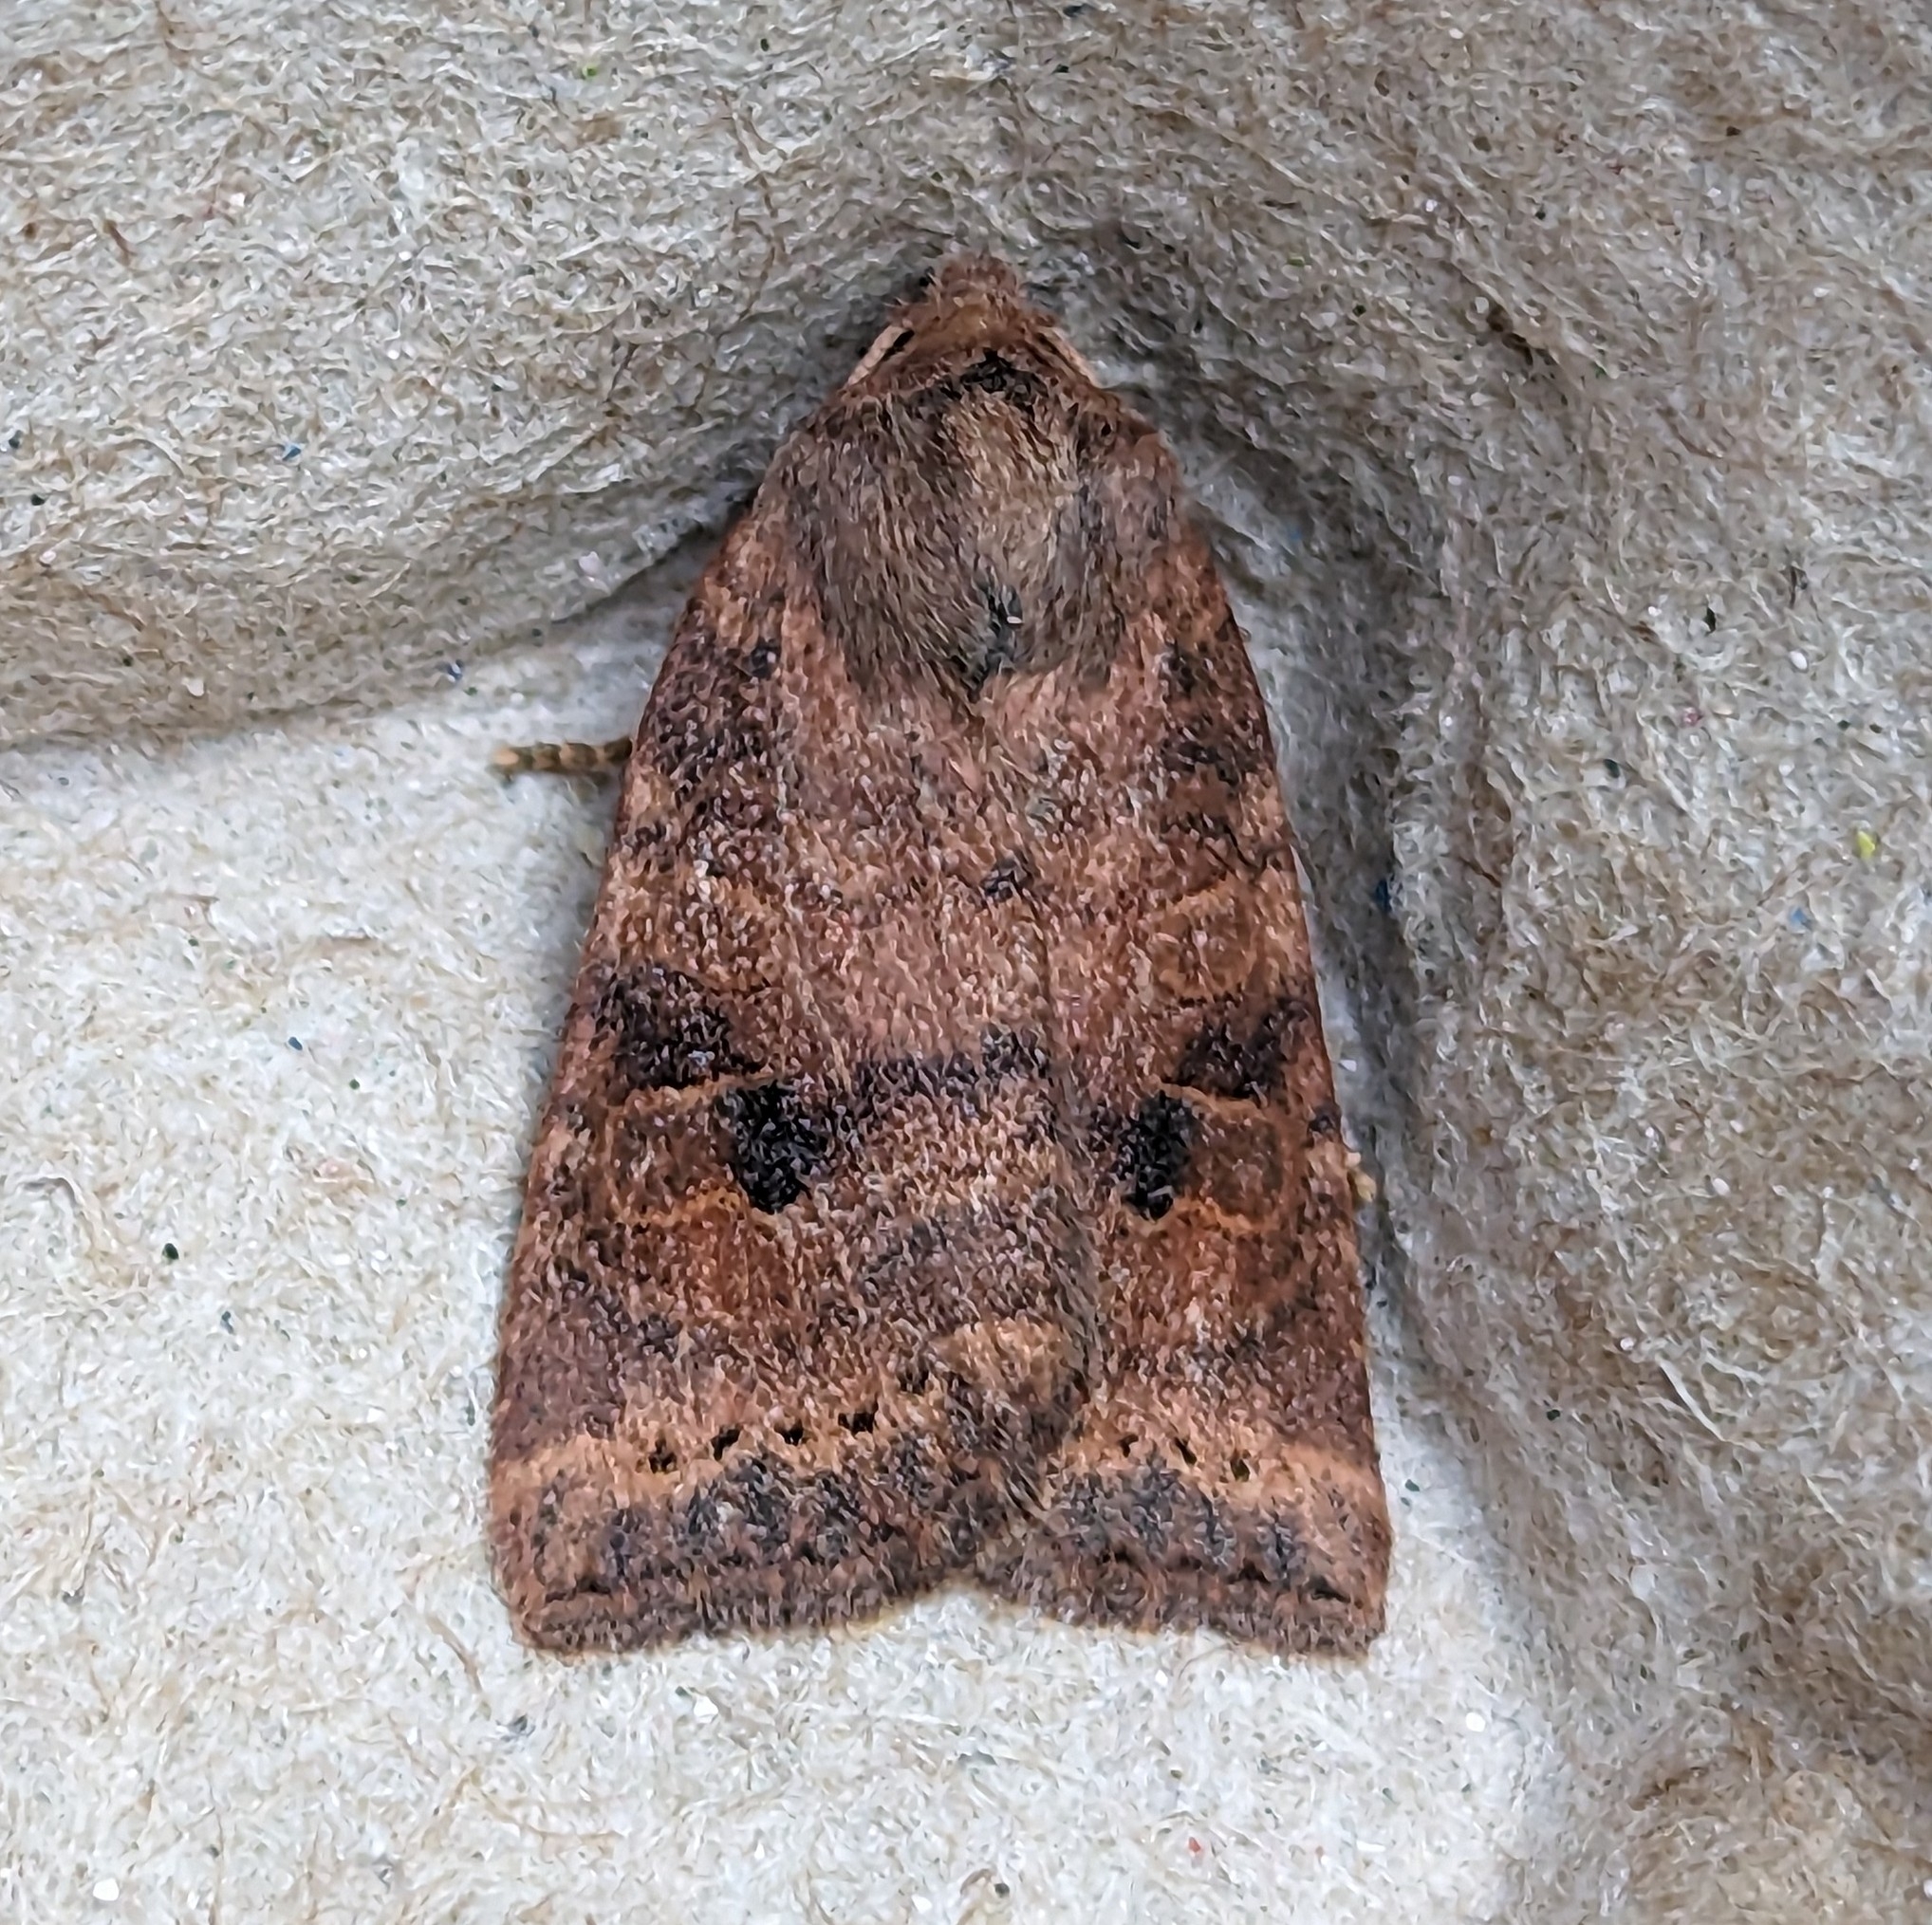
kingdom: Animalia
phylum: Arthropoda
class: Insecta
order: Lepidoptera
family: Noctuidae
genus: Anathix
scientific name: Anathix puta
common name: Puta sallow
